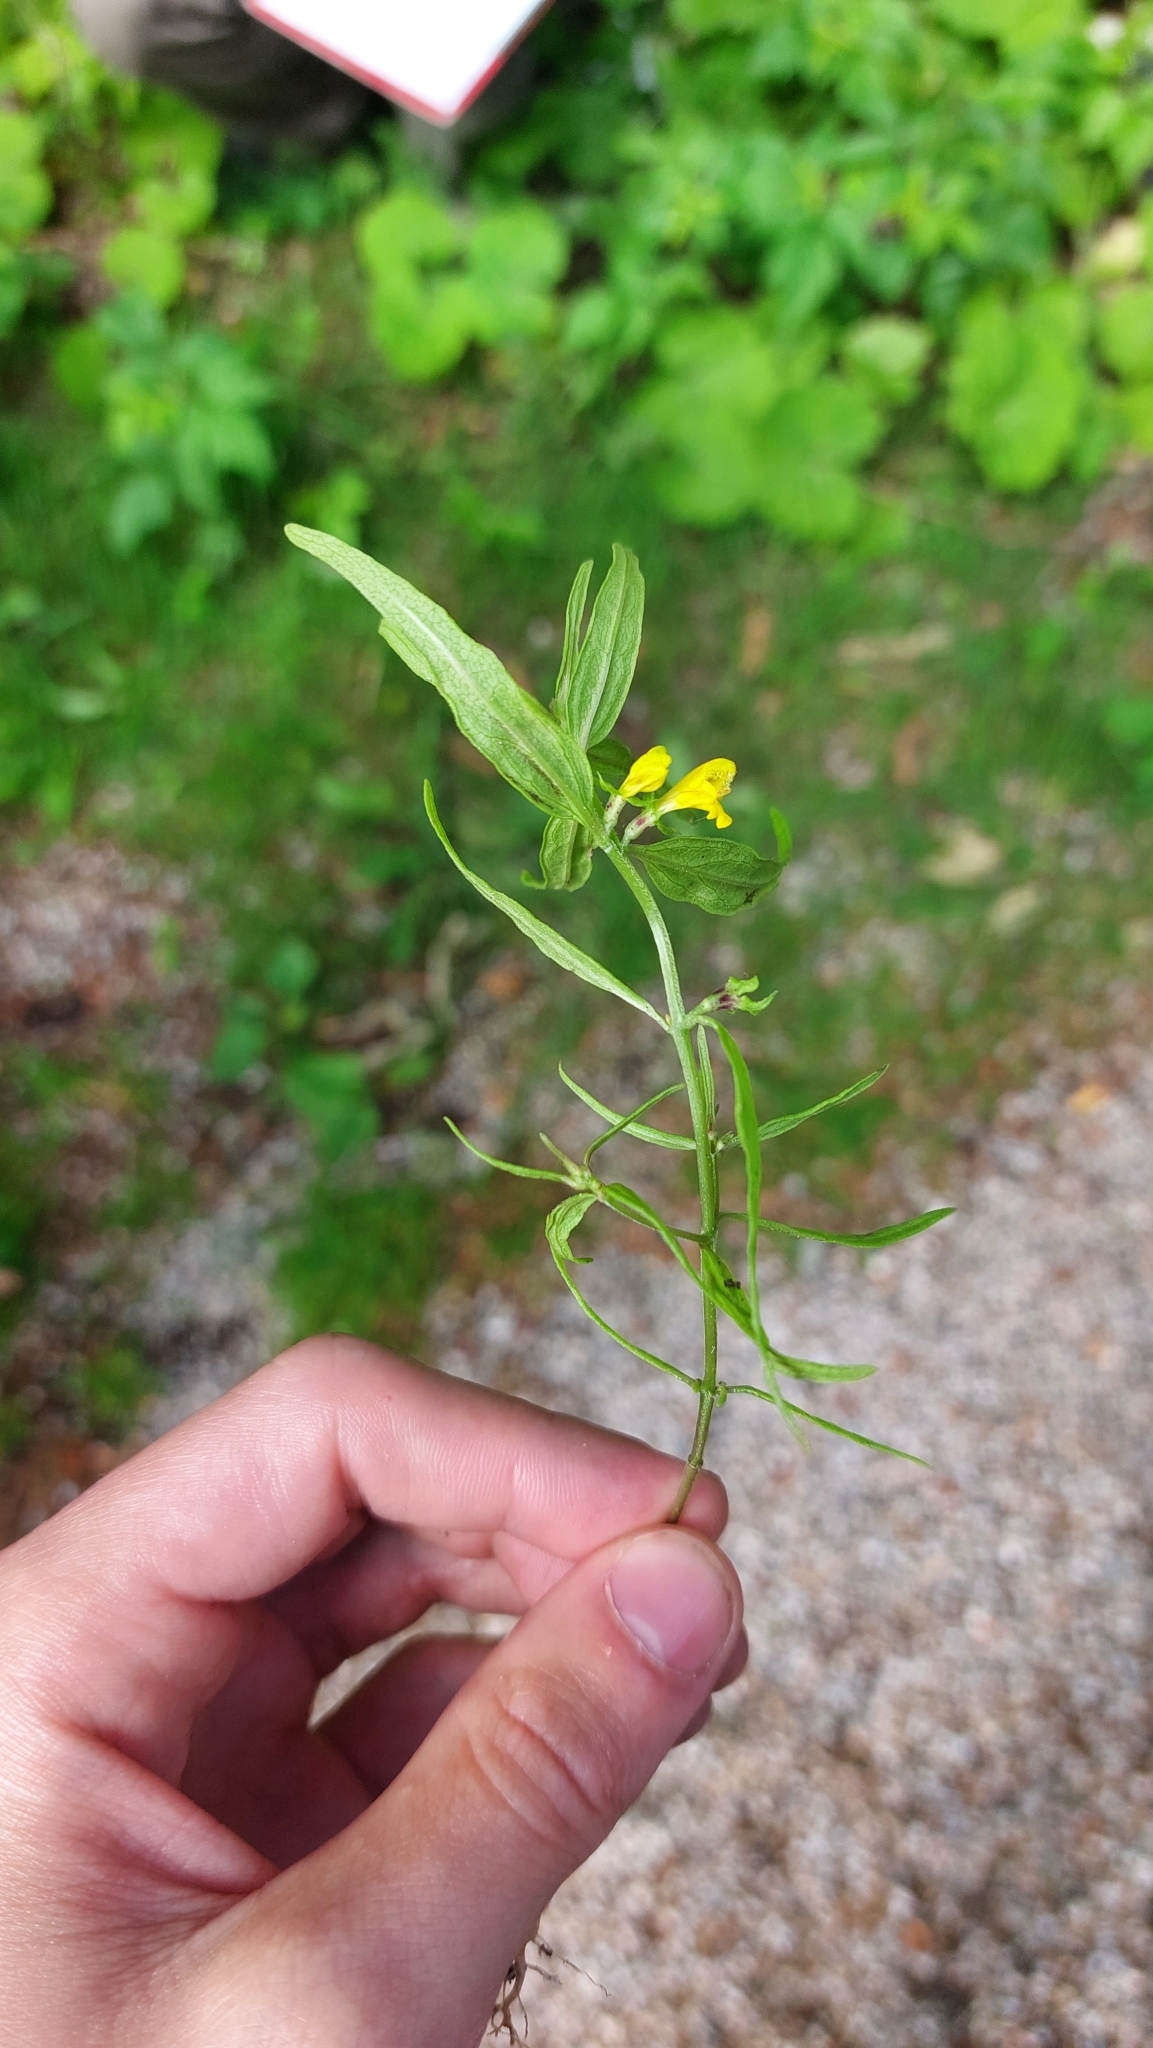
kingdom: Plantae
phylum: Tracheophyta
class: Magnoliopsida
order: Lamiales
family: Orobanchaceae
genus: Melampyrum
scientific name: Melampyrum sylvaticum
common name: Small cow-wheat
